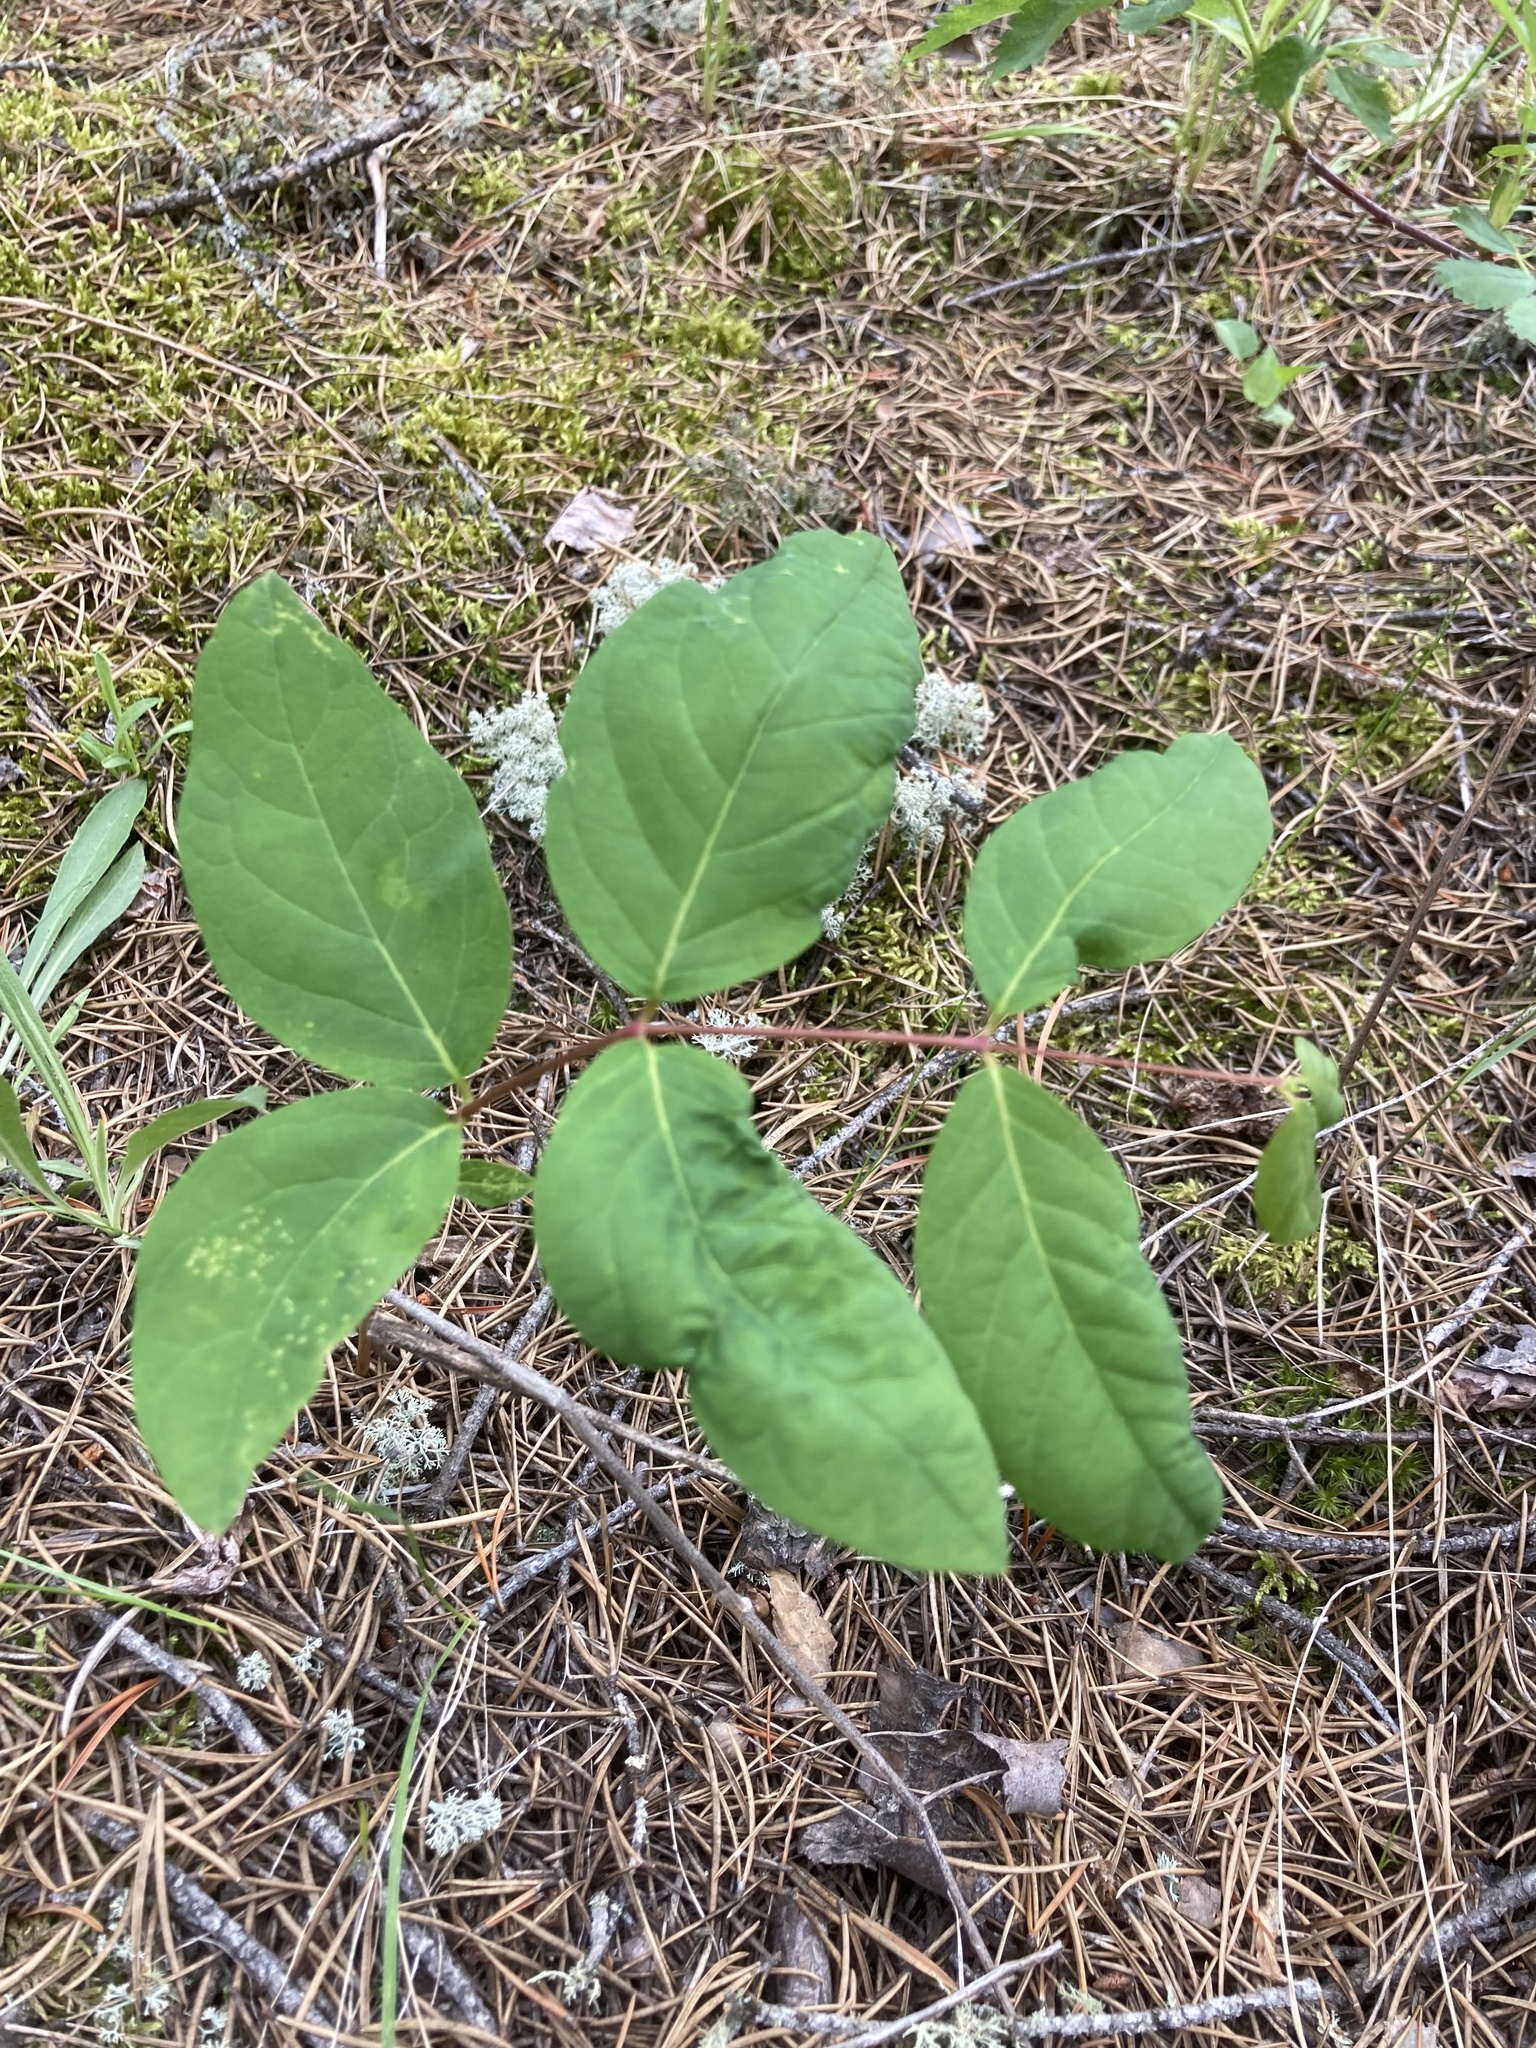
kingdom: Plantae
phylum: Tracheophyta
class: Magnoliopsida
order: Gentianales
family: Apocynaceae
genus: Apocynum
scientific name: Apocynum androsaemifolium
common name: Spreading dogbane
